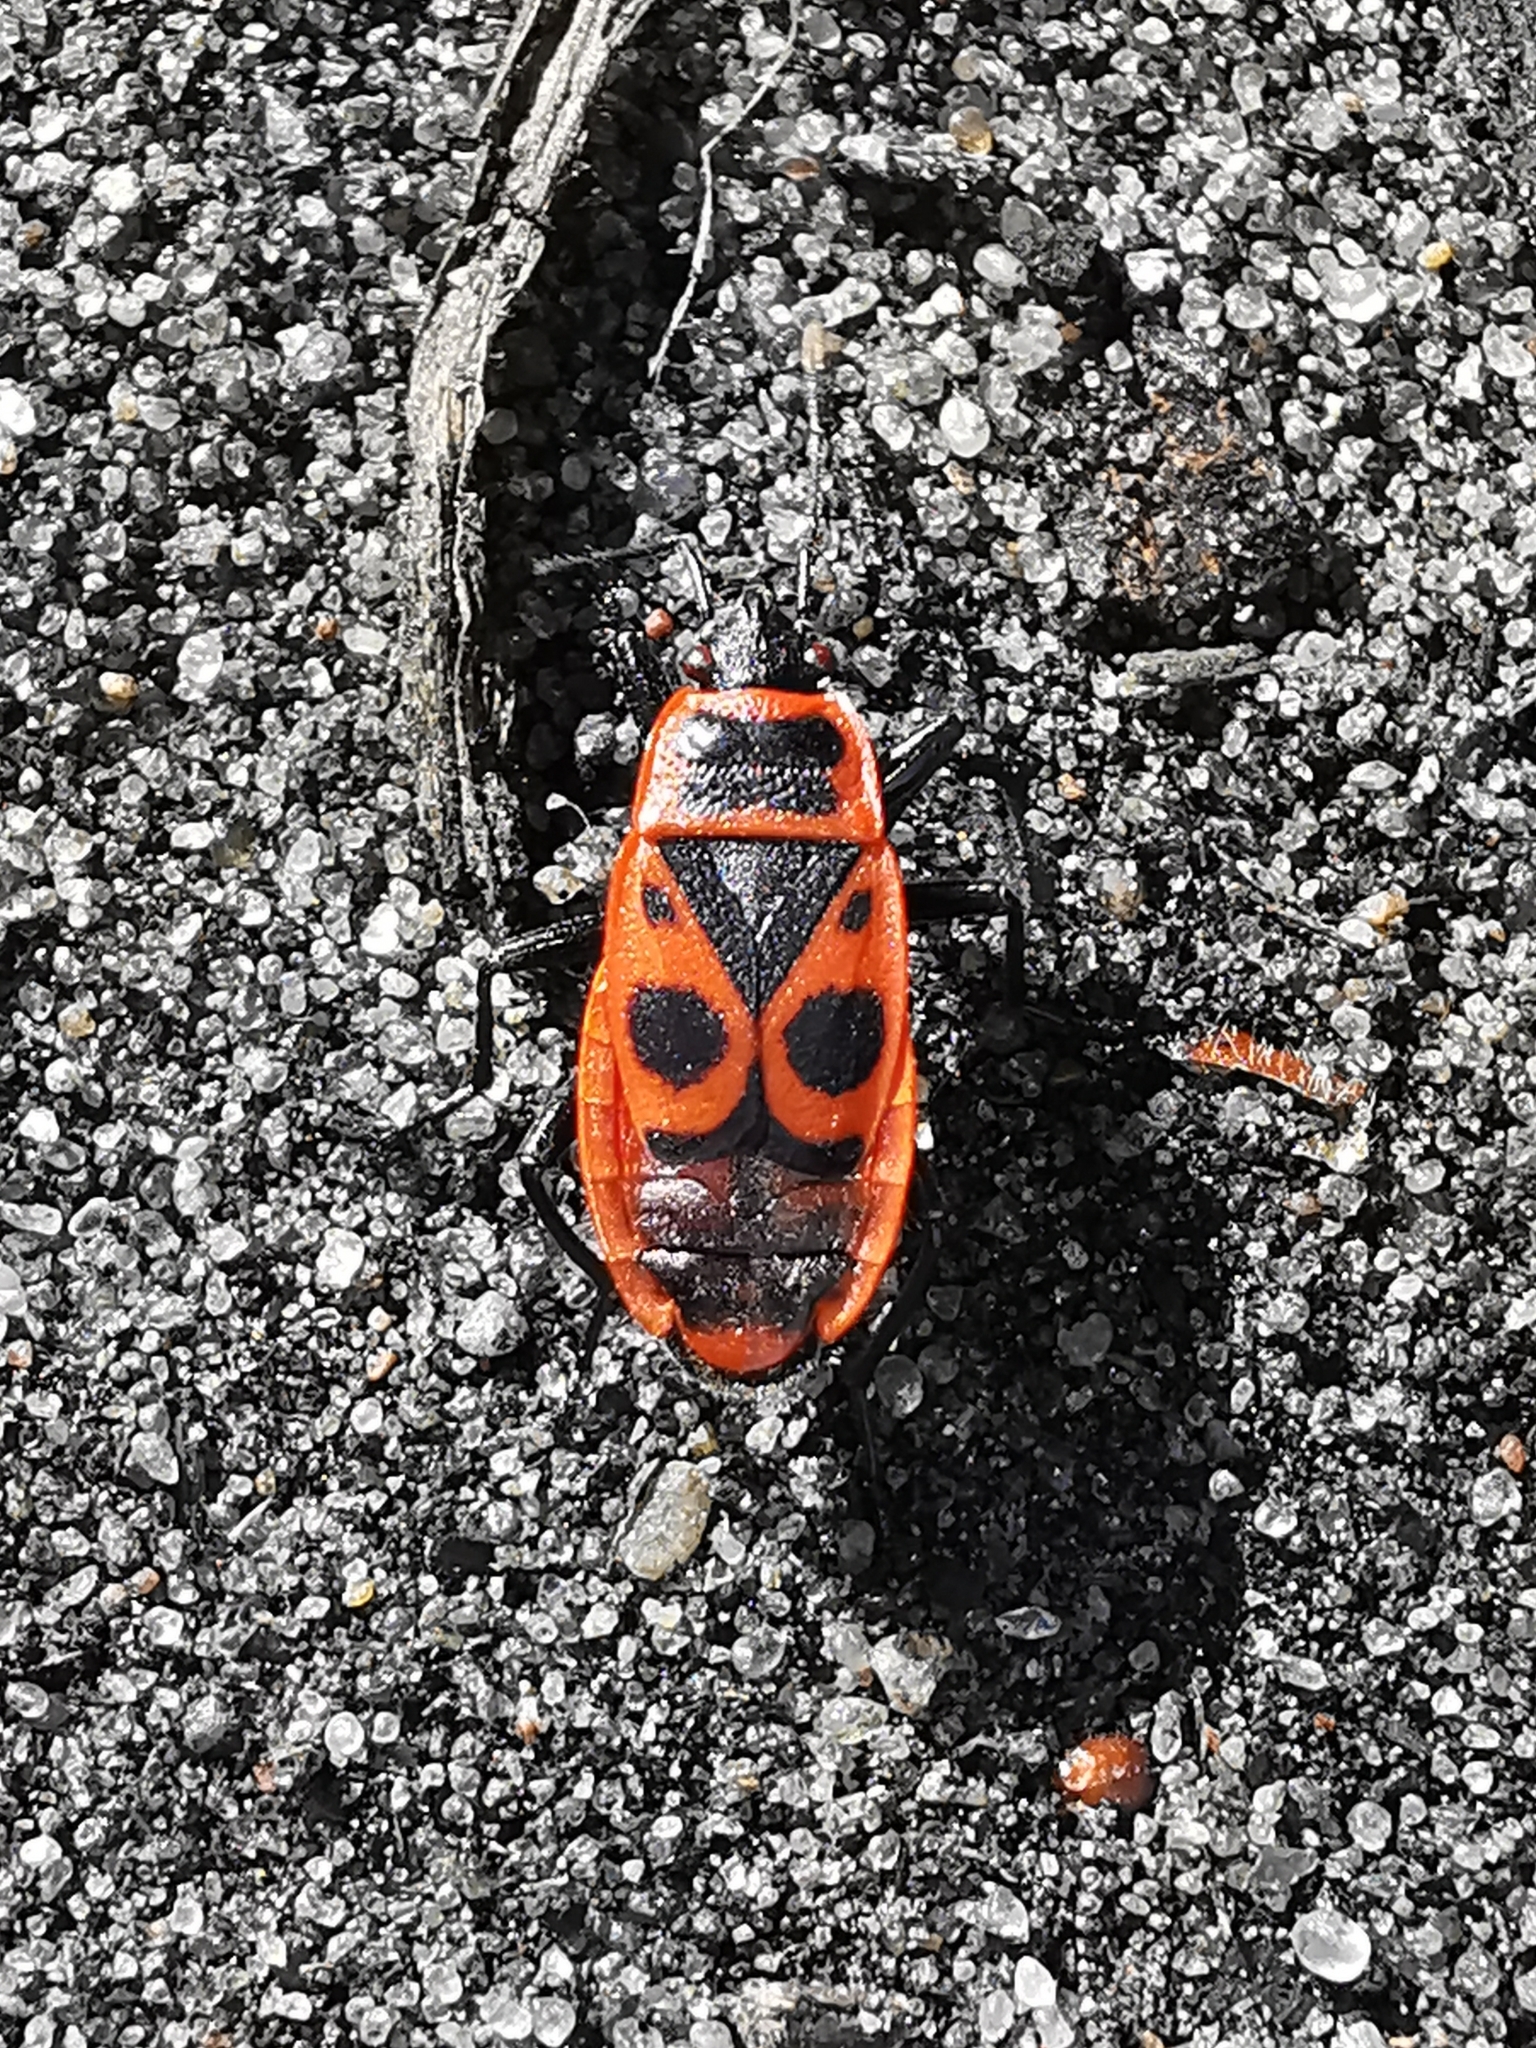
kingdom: Animalia
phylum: Arthropoda
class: Insecta
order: Hemiptera
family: Pyrrhocoridae
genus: Pyrrhocoris
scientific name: Pyrrhocoris apterus
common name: Firebug
